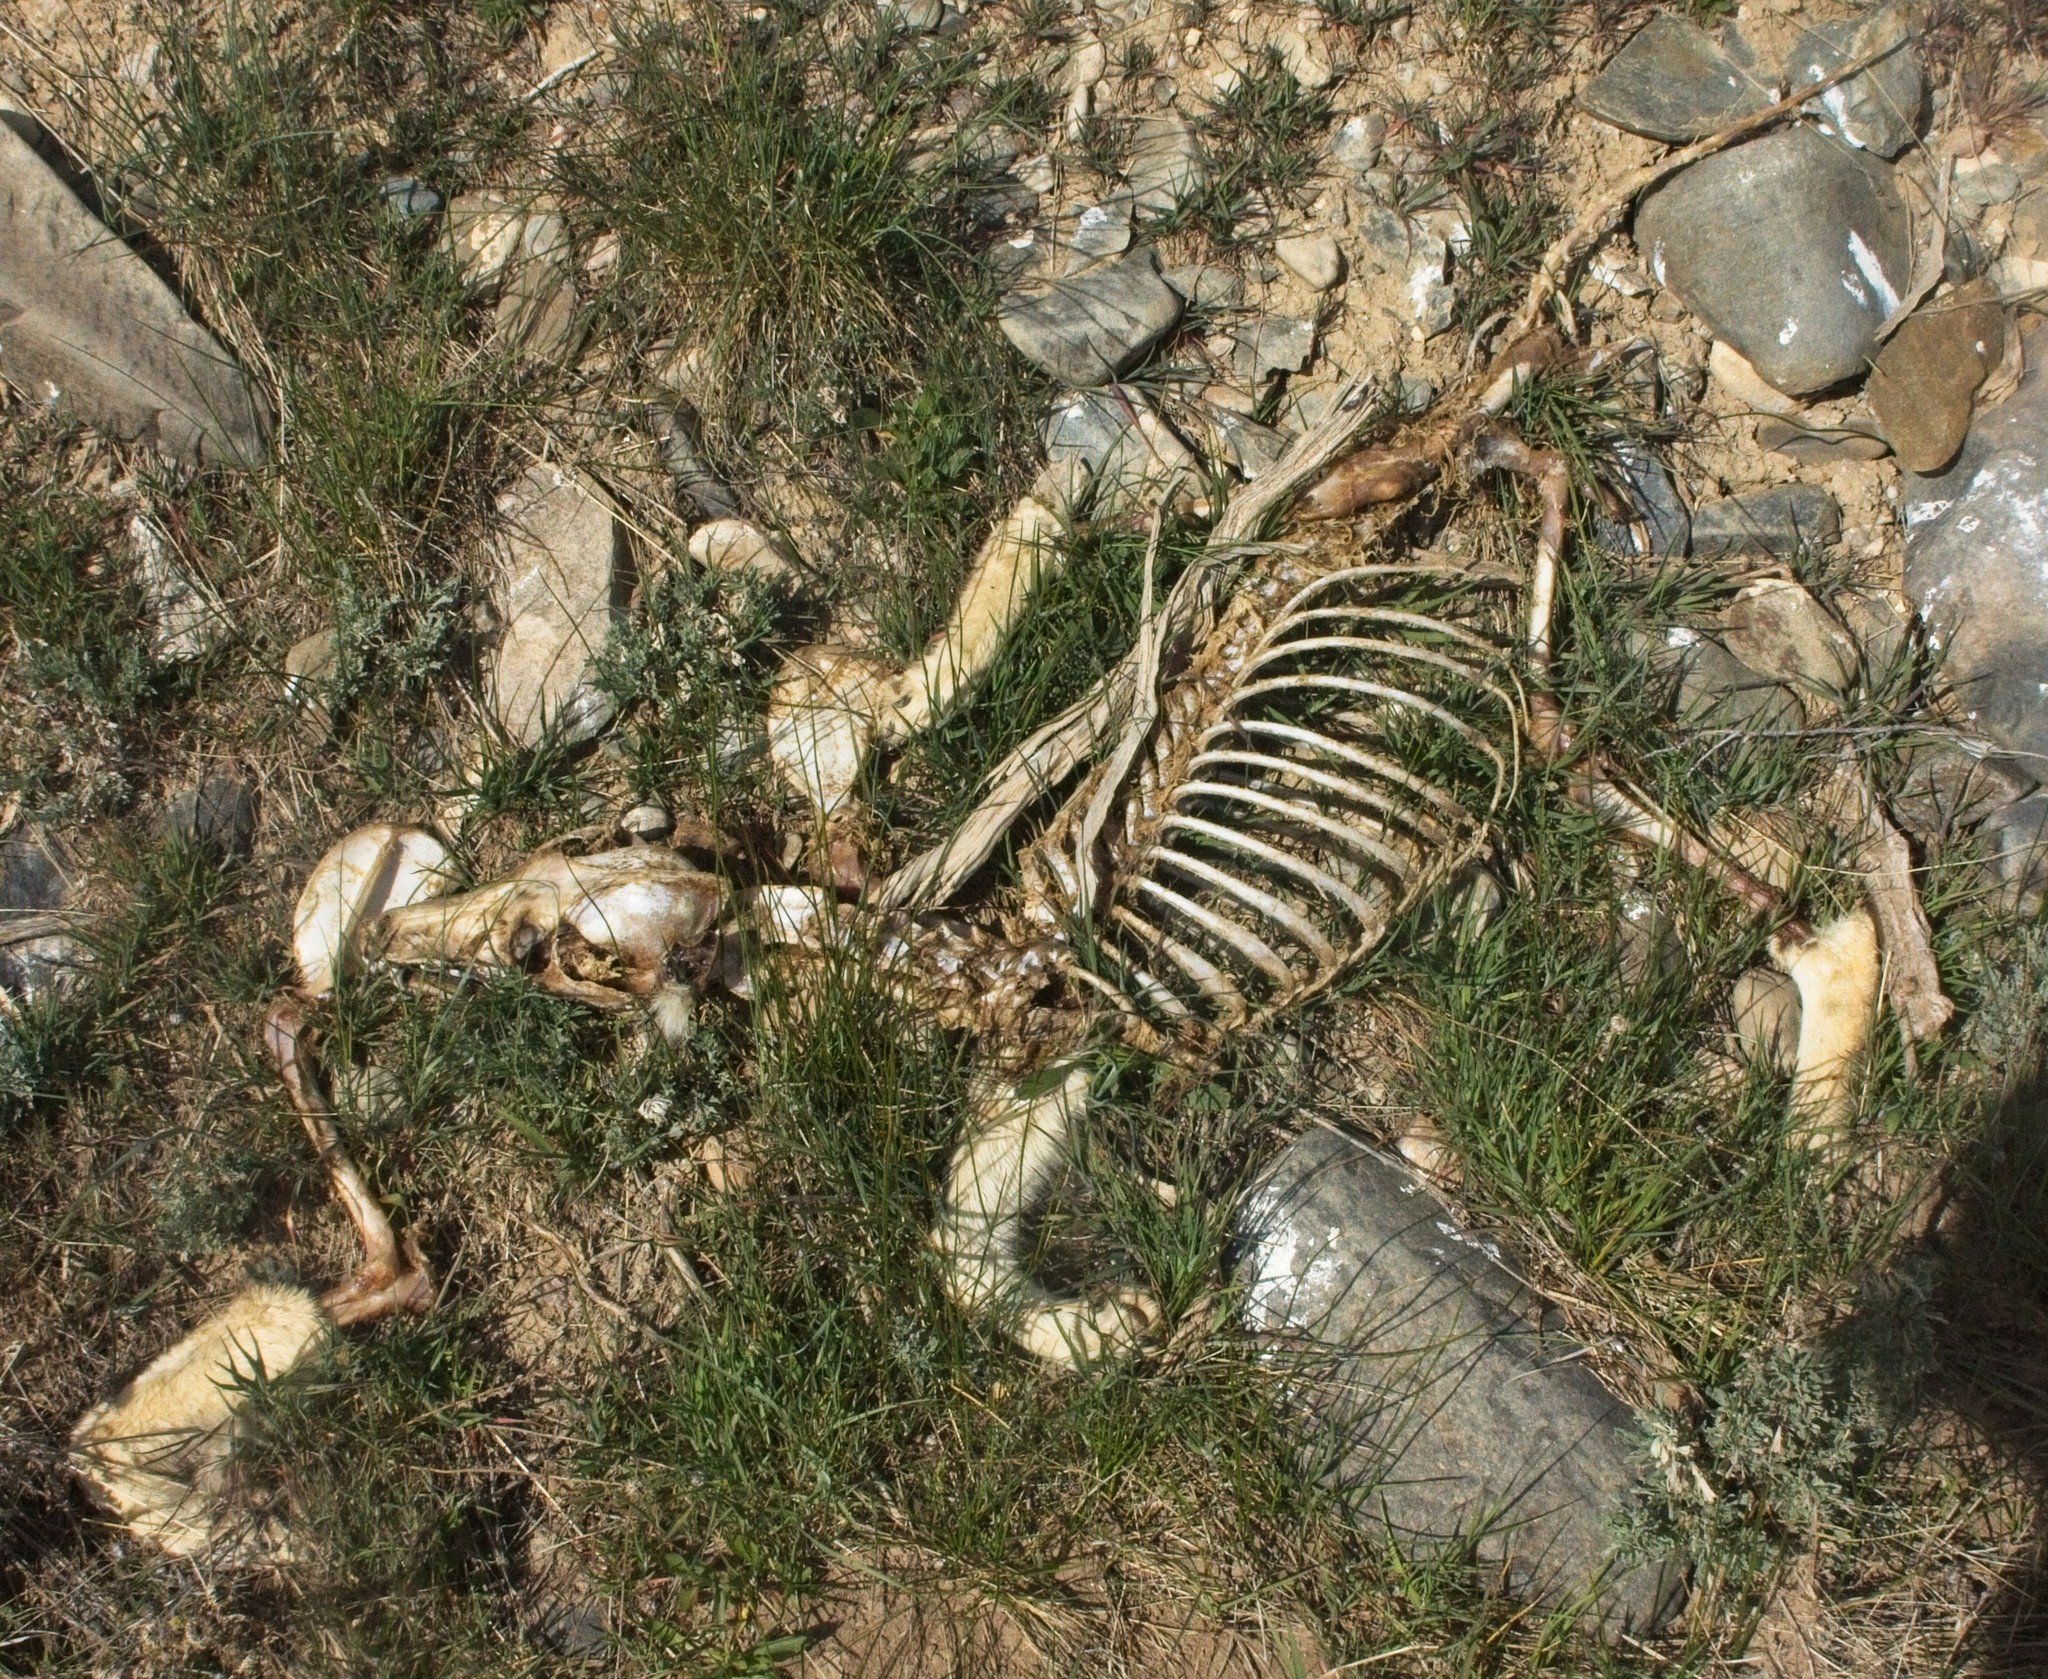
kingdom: Animalia
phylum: Chordata
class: Mammalia
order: Carnivora
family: Canidae
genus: Canis
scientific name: Canis latrans
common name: Coyote
